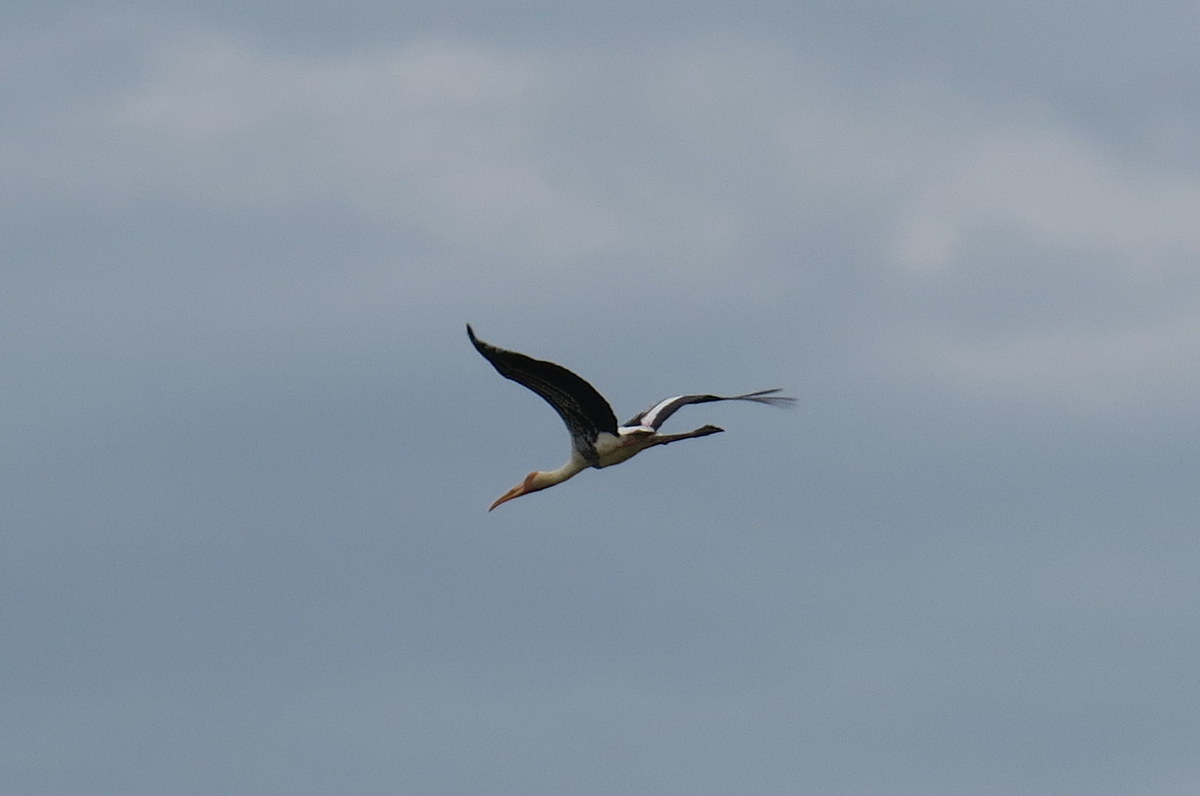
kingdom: Animalia
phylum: Chordata
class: Aves
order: Ciconiiformes
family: Ciconiidae
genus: Mycteria
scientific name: Mycteria leucocephala
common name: Painted stork
